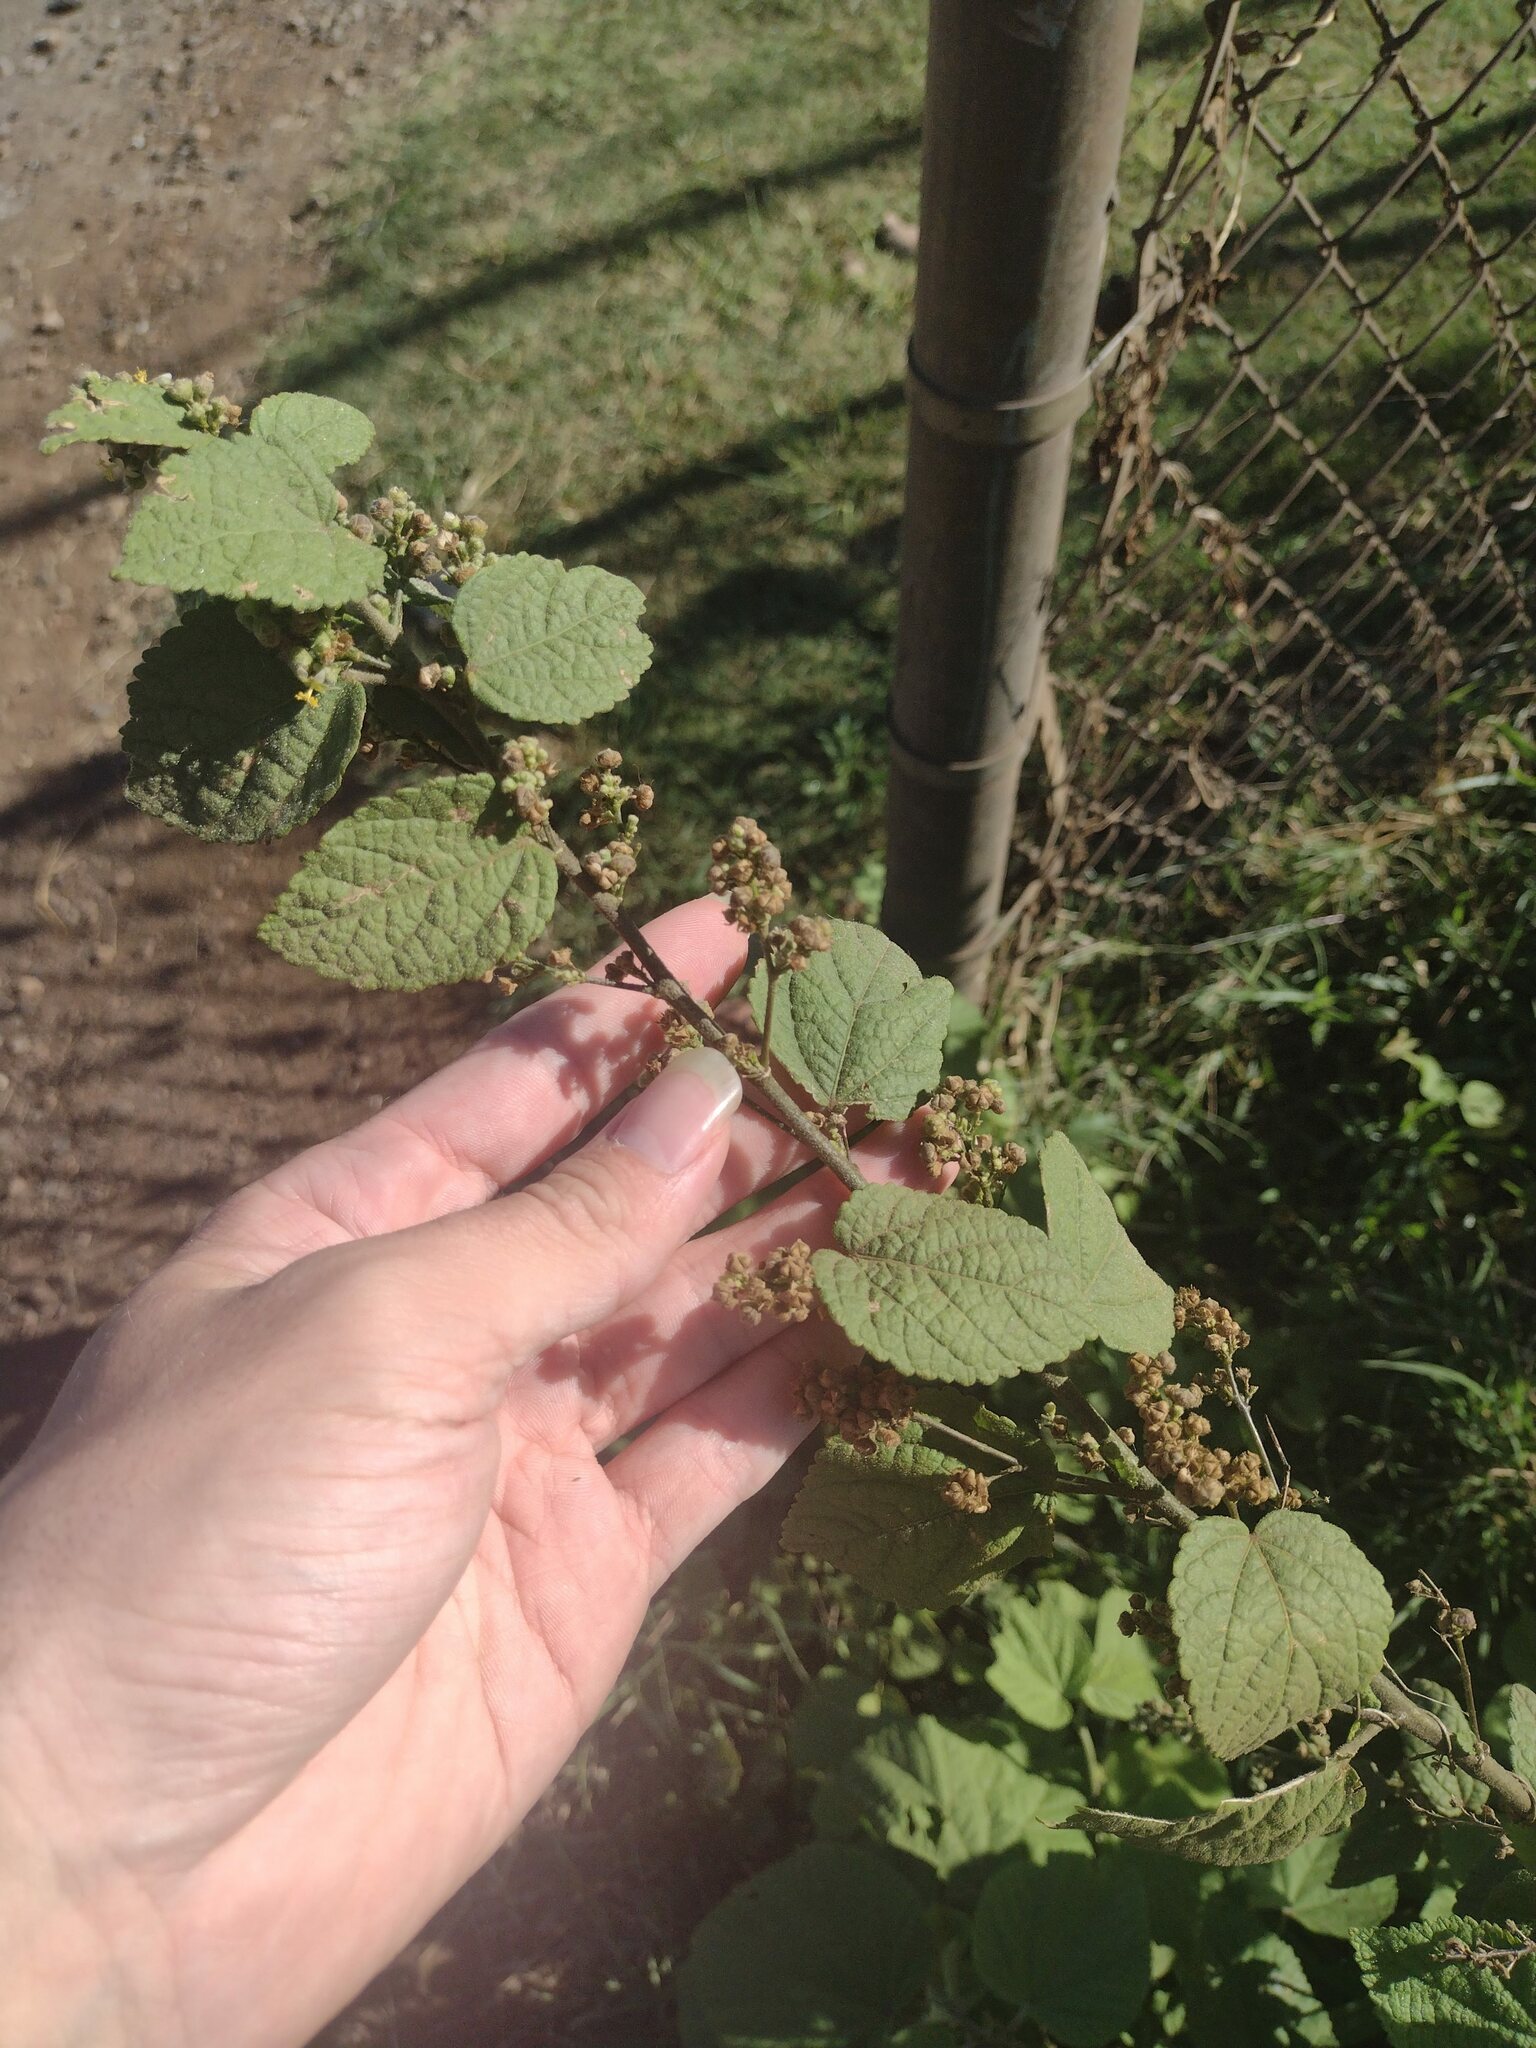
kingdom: Plantae
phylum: Tracheophyta
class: Magnoliopsida
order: Malvales
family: Malvaceae
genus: Sidastrum
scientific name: Sidastrum micranthum
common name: Dainty sandmallow
